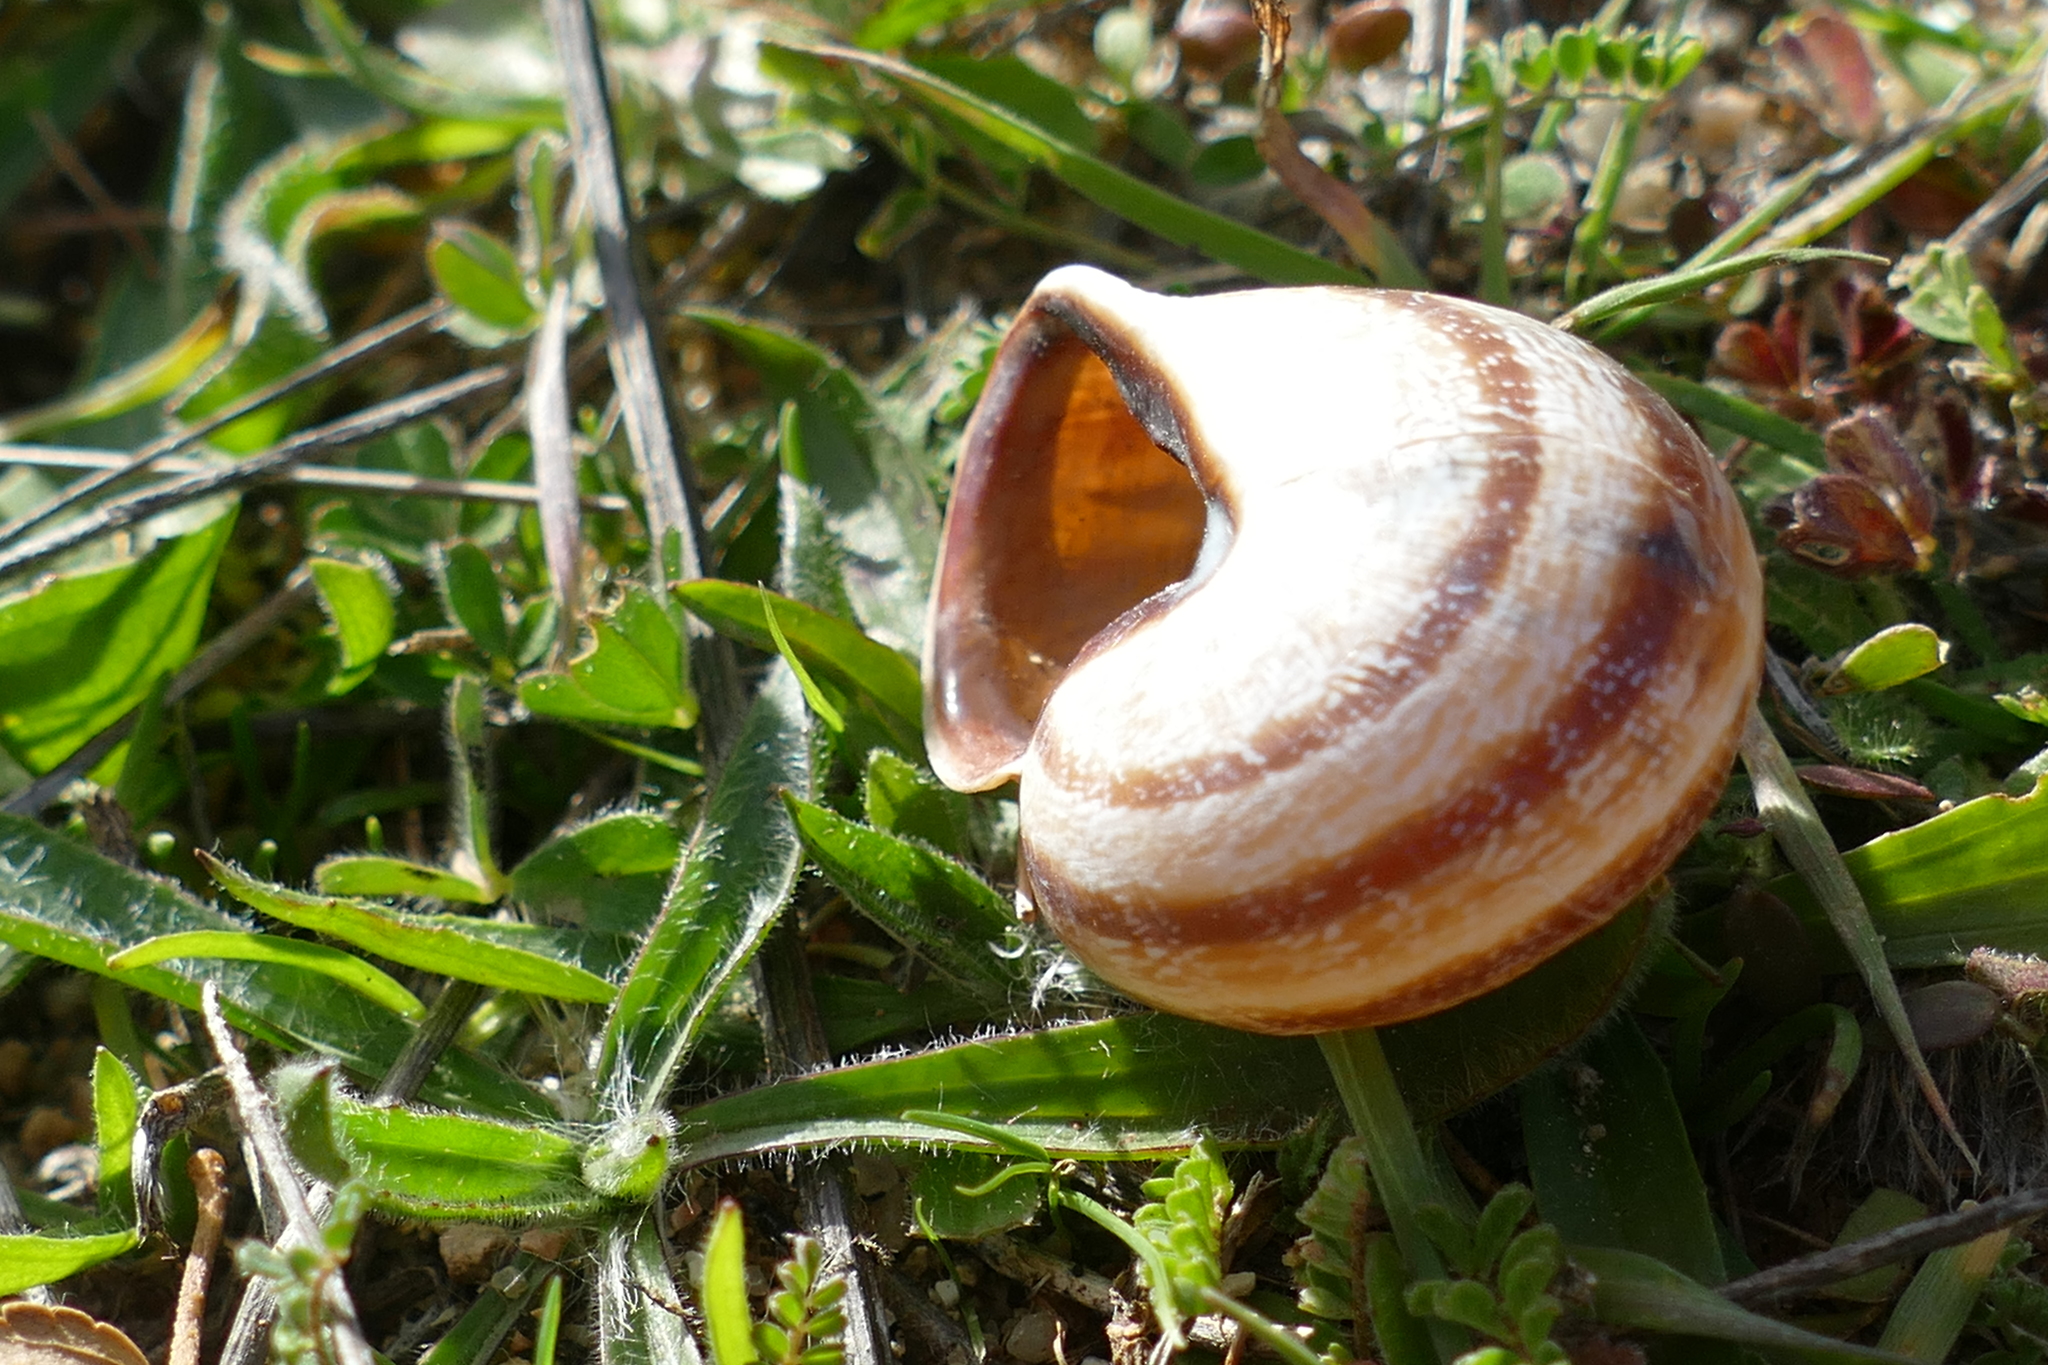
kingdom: Animalia
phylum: Mollusca
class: Gastropoda
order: Stylommatophora
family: Helicidae
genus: Otala
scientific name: Otala lactea
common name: Milk snail
